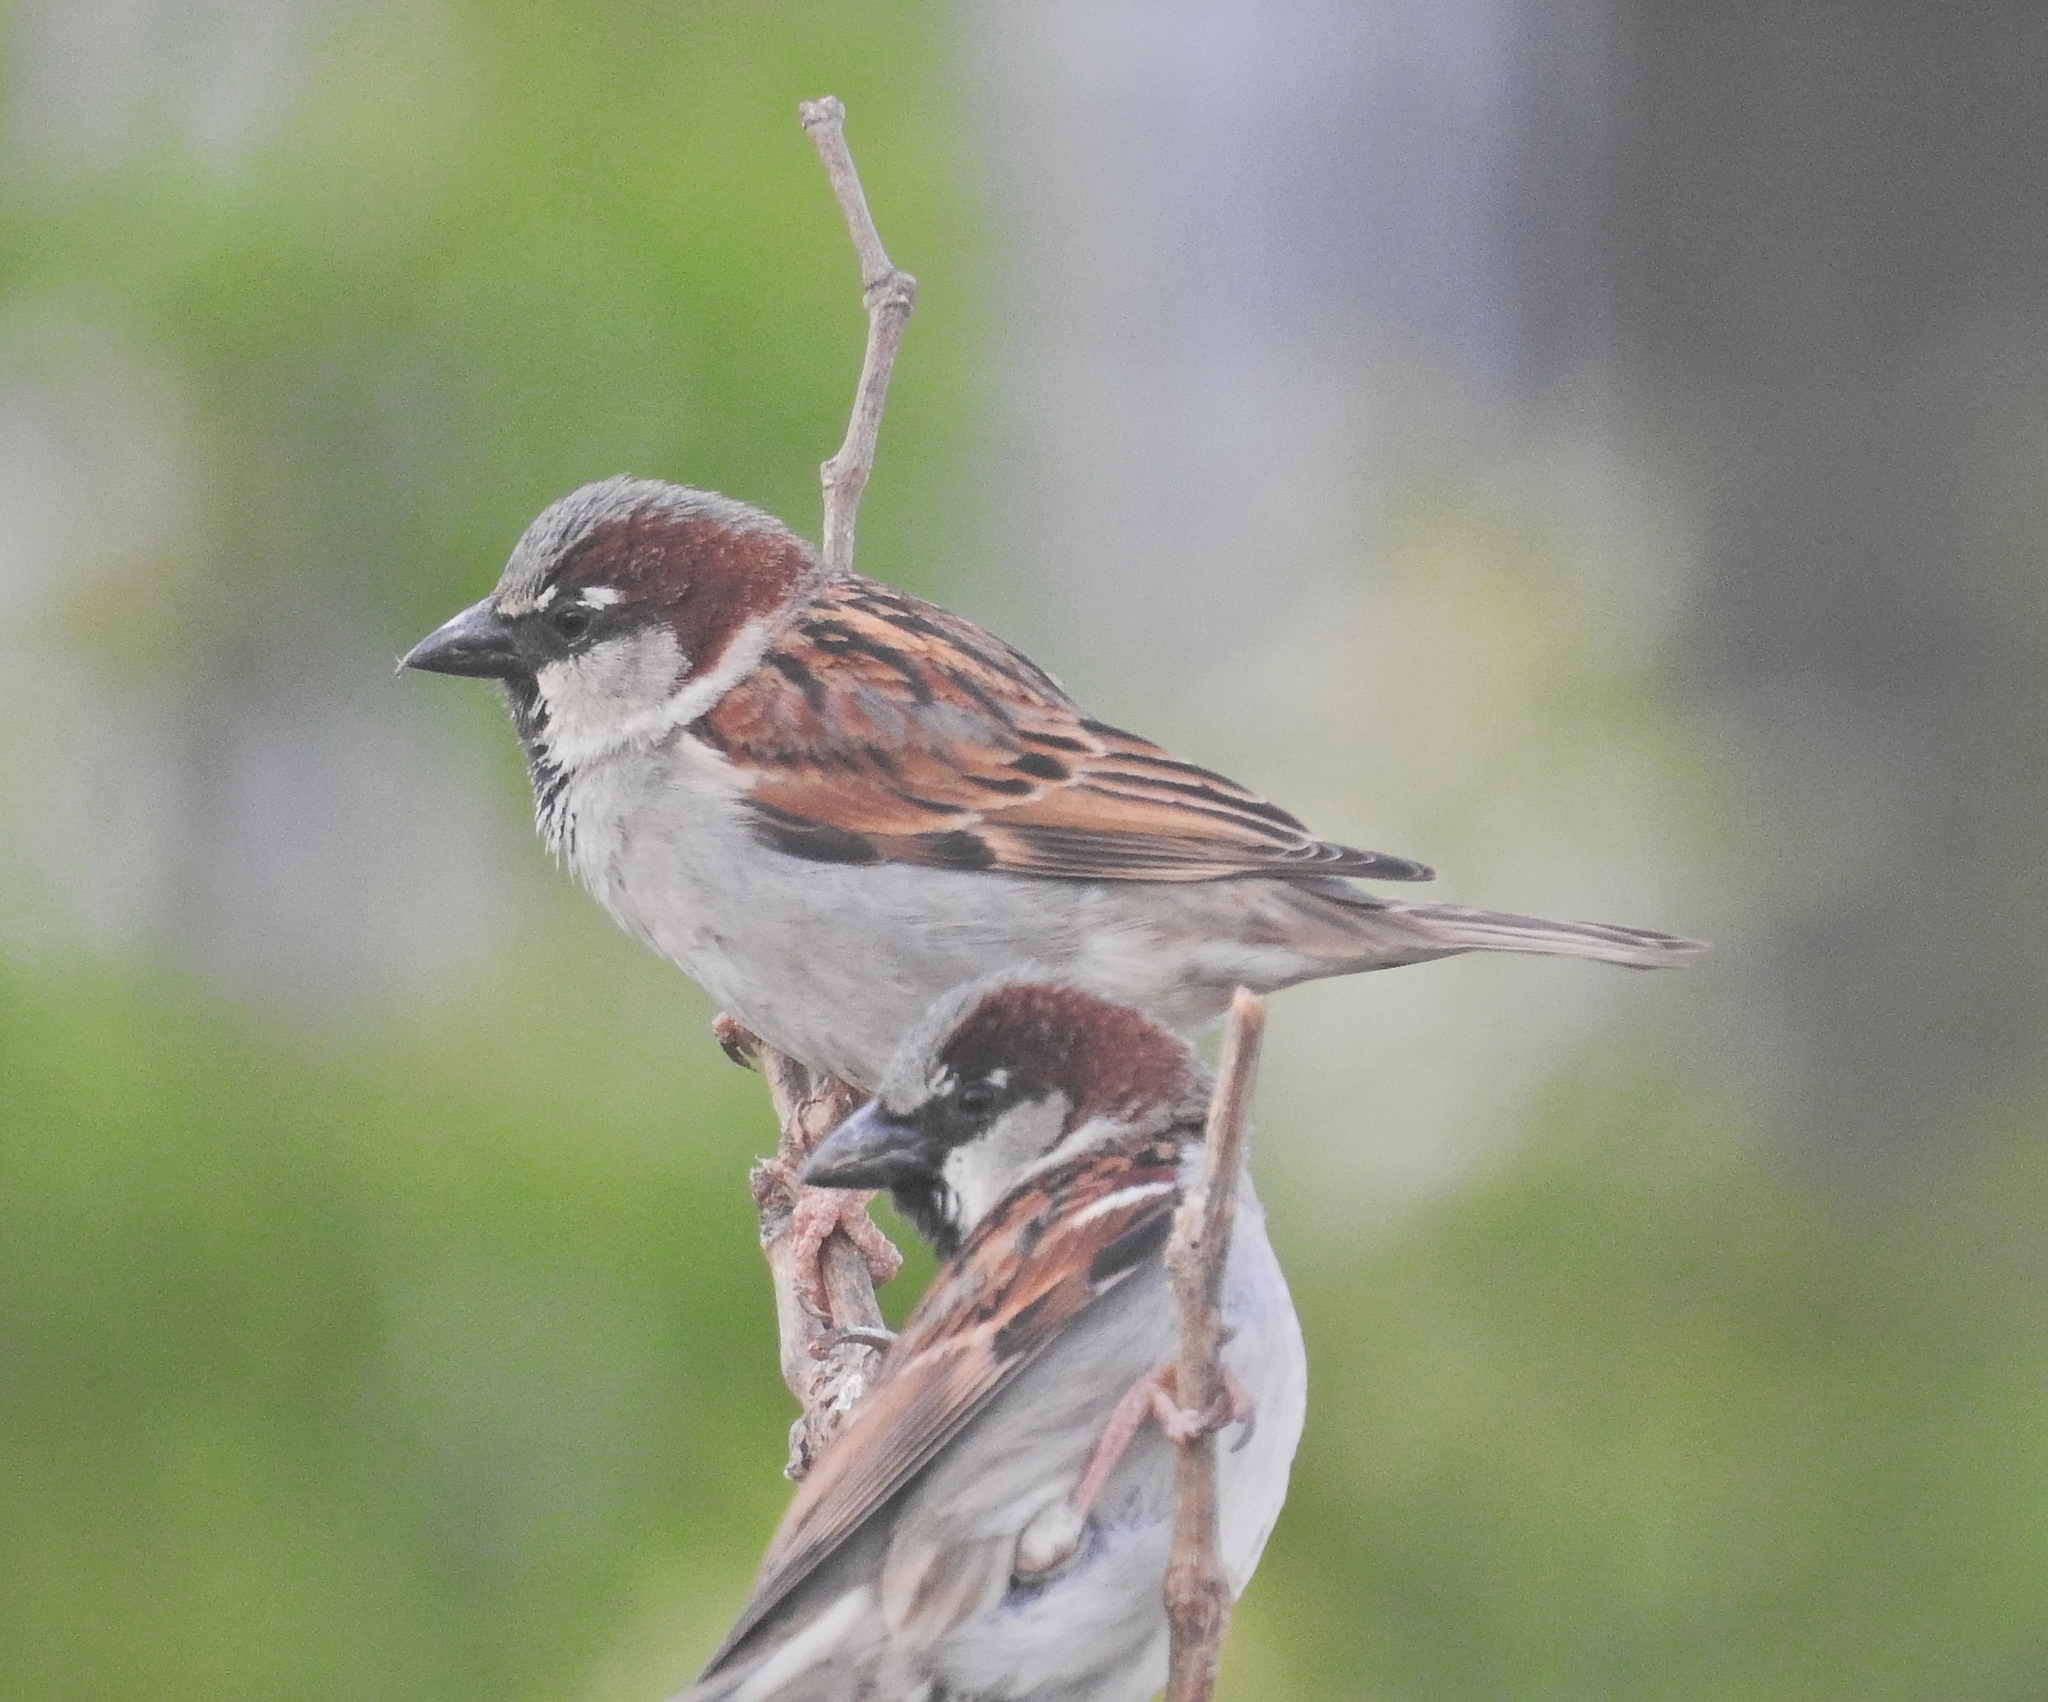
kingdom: Animalia
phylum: Chordata
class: Aves
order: Passeriformes
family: Passeridae
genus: Passer
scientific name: Passer domesticus
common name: House sparrow
